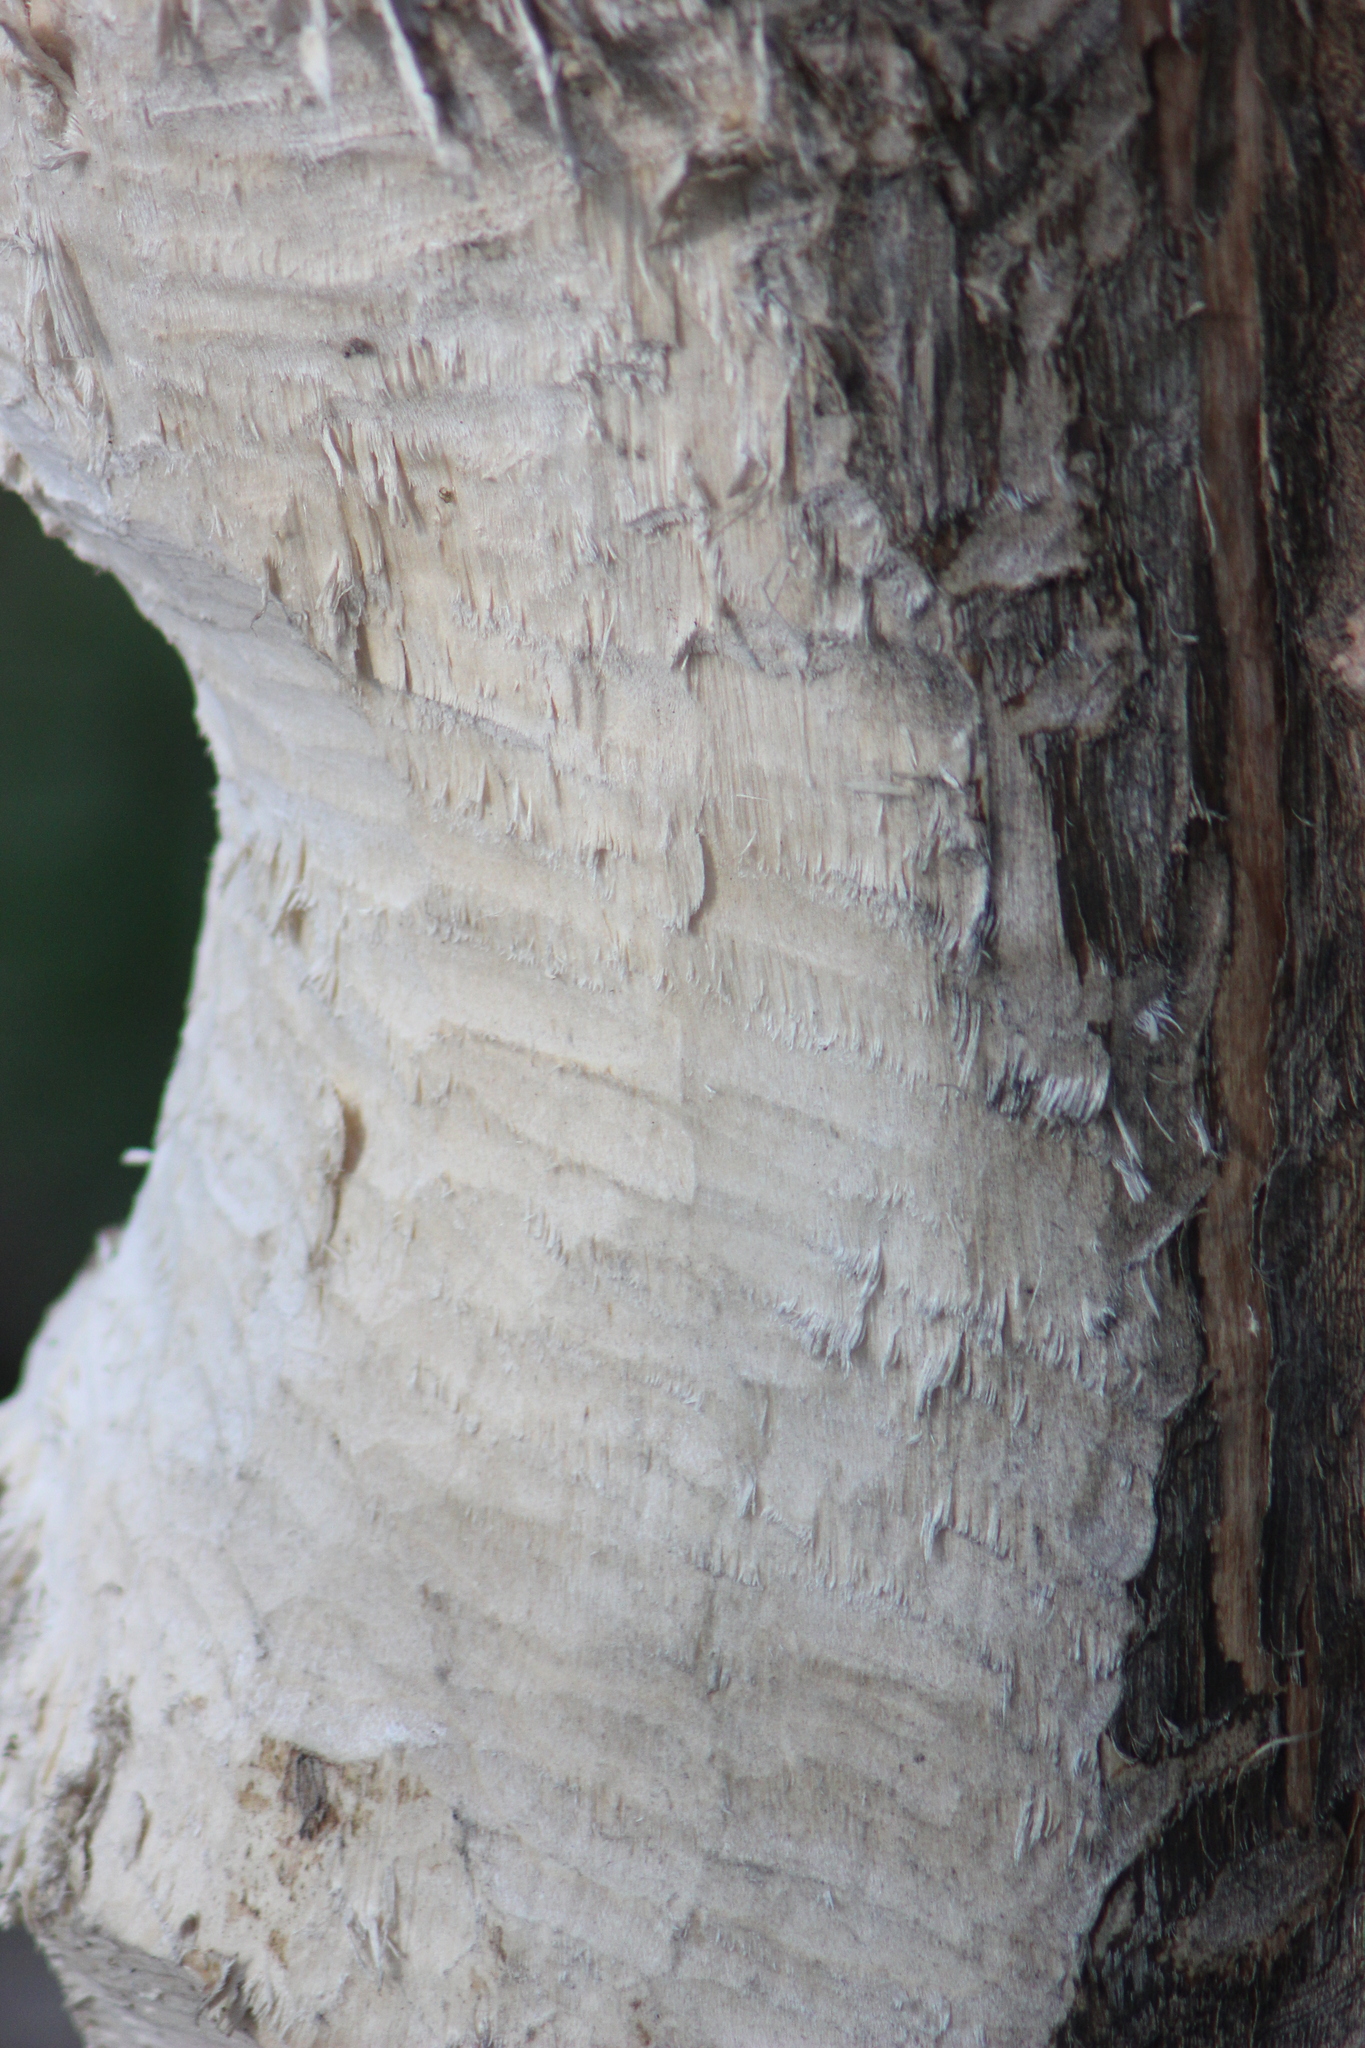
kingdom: Animalia
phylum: Chordata
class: Mammalia
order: Rodentia
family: Castoridae
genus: Castor
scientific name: Castor fiber
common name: Eurasian beaver
